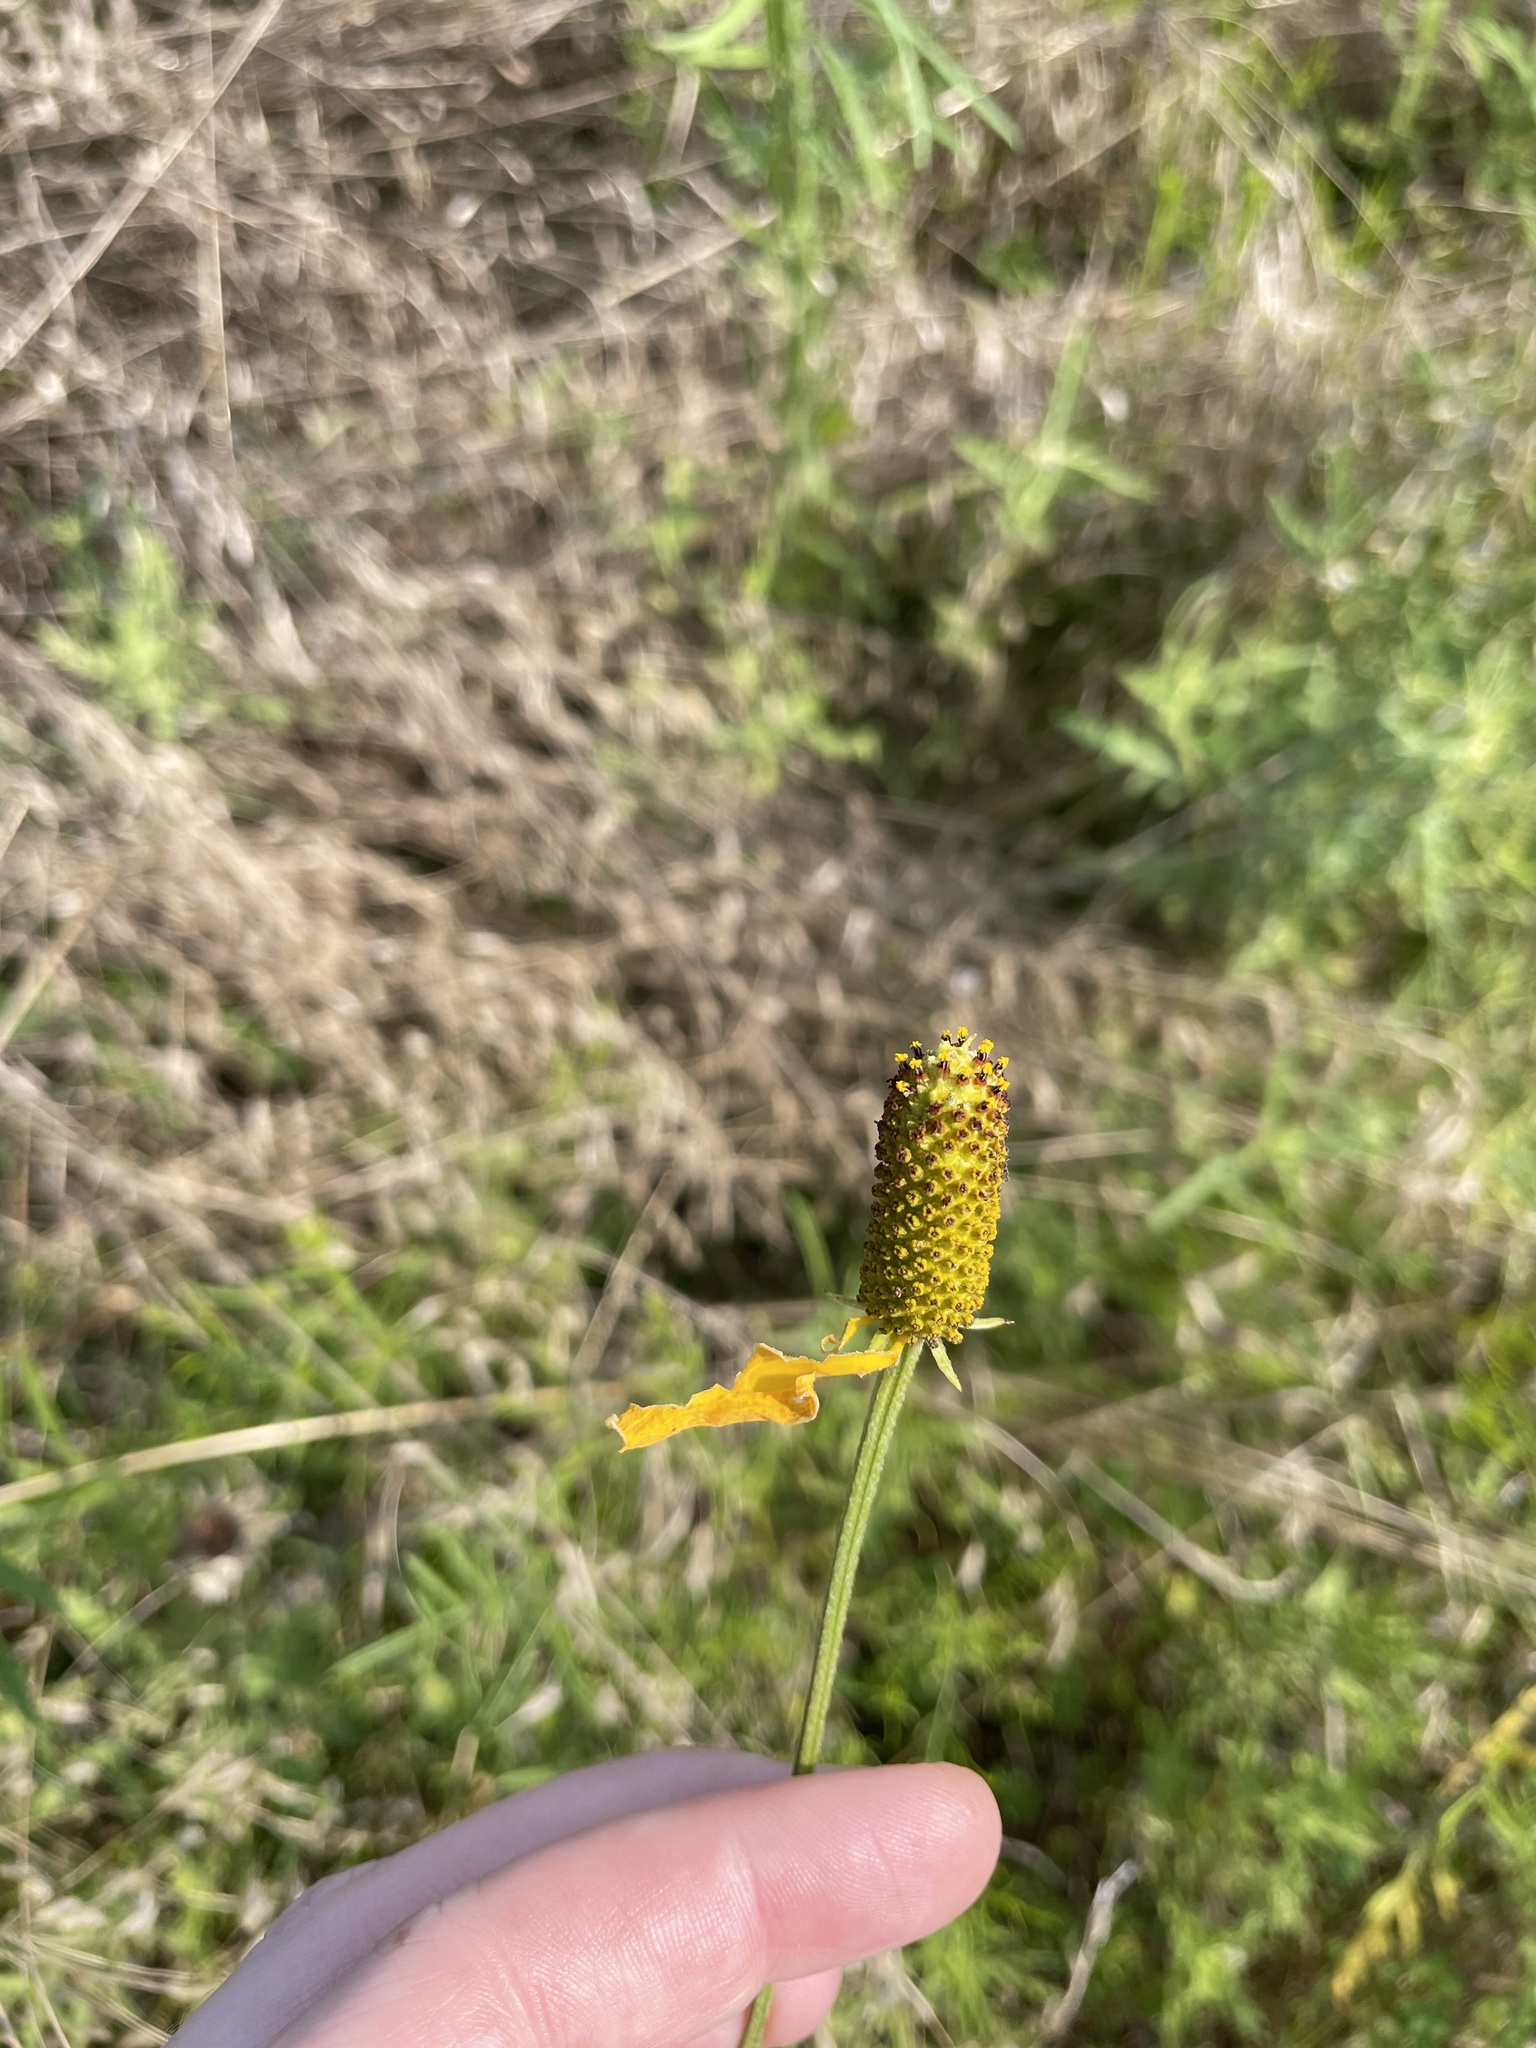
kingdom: Plantae
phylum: Tracheophyta
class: Magnoliopsida
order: Asterales
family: Asteraceae
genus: Ratibida
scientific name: Ratibida columnifera
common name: Prairie coneflower
